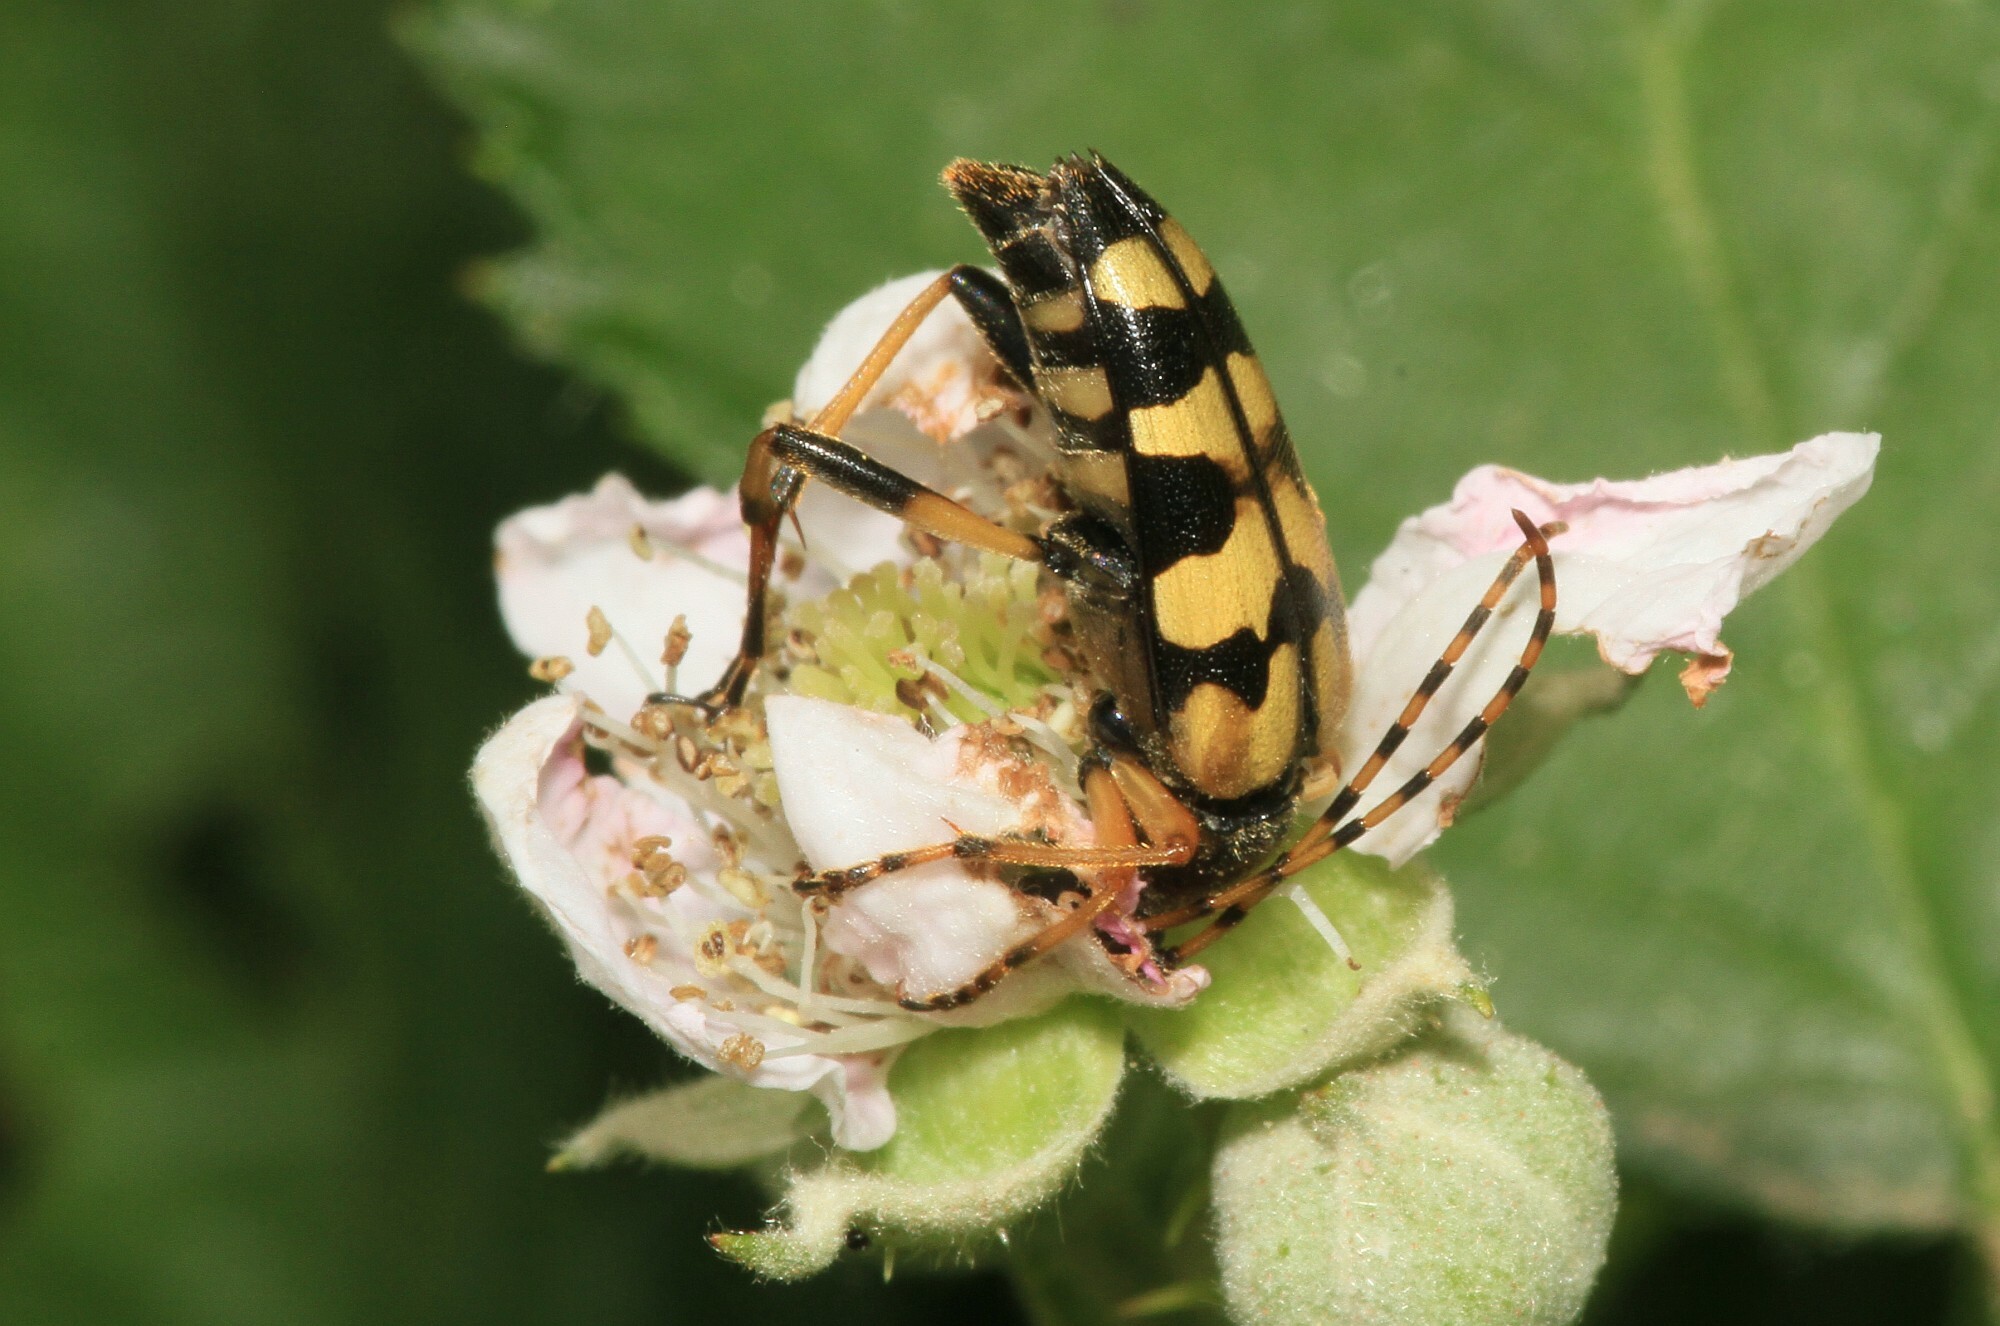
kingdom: Animalia
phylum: Arthropoda
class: Insecta
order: Coleoptera
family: Cerambycidae
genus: Rutpela
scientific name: Rutpela maculata
